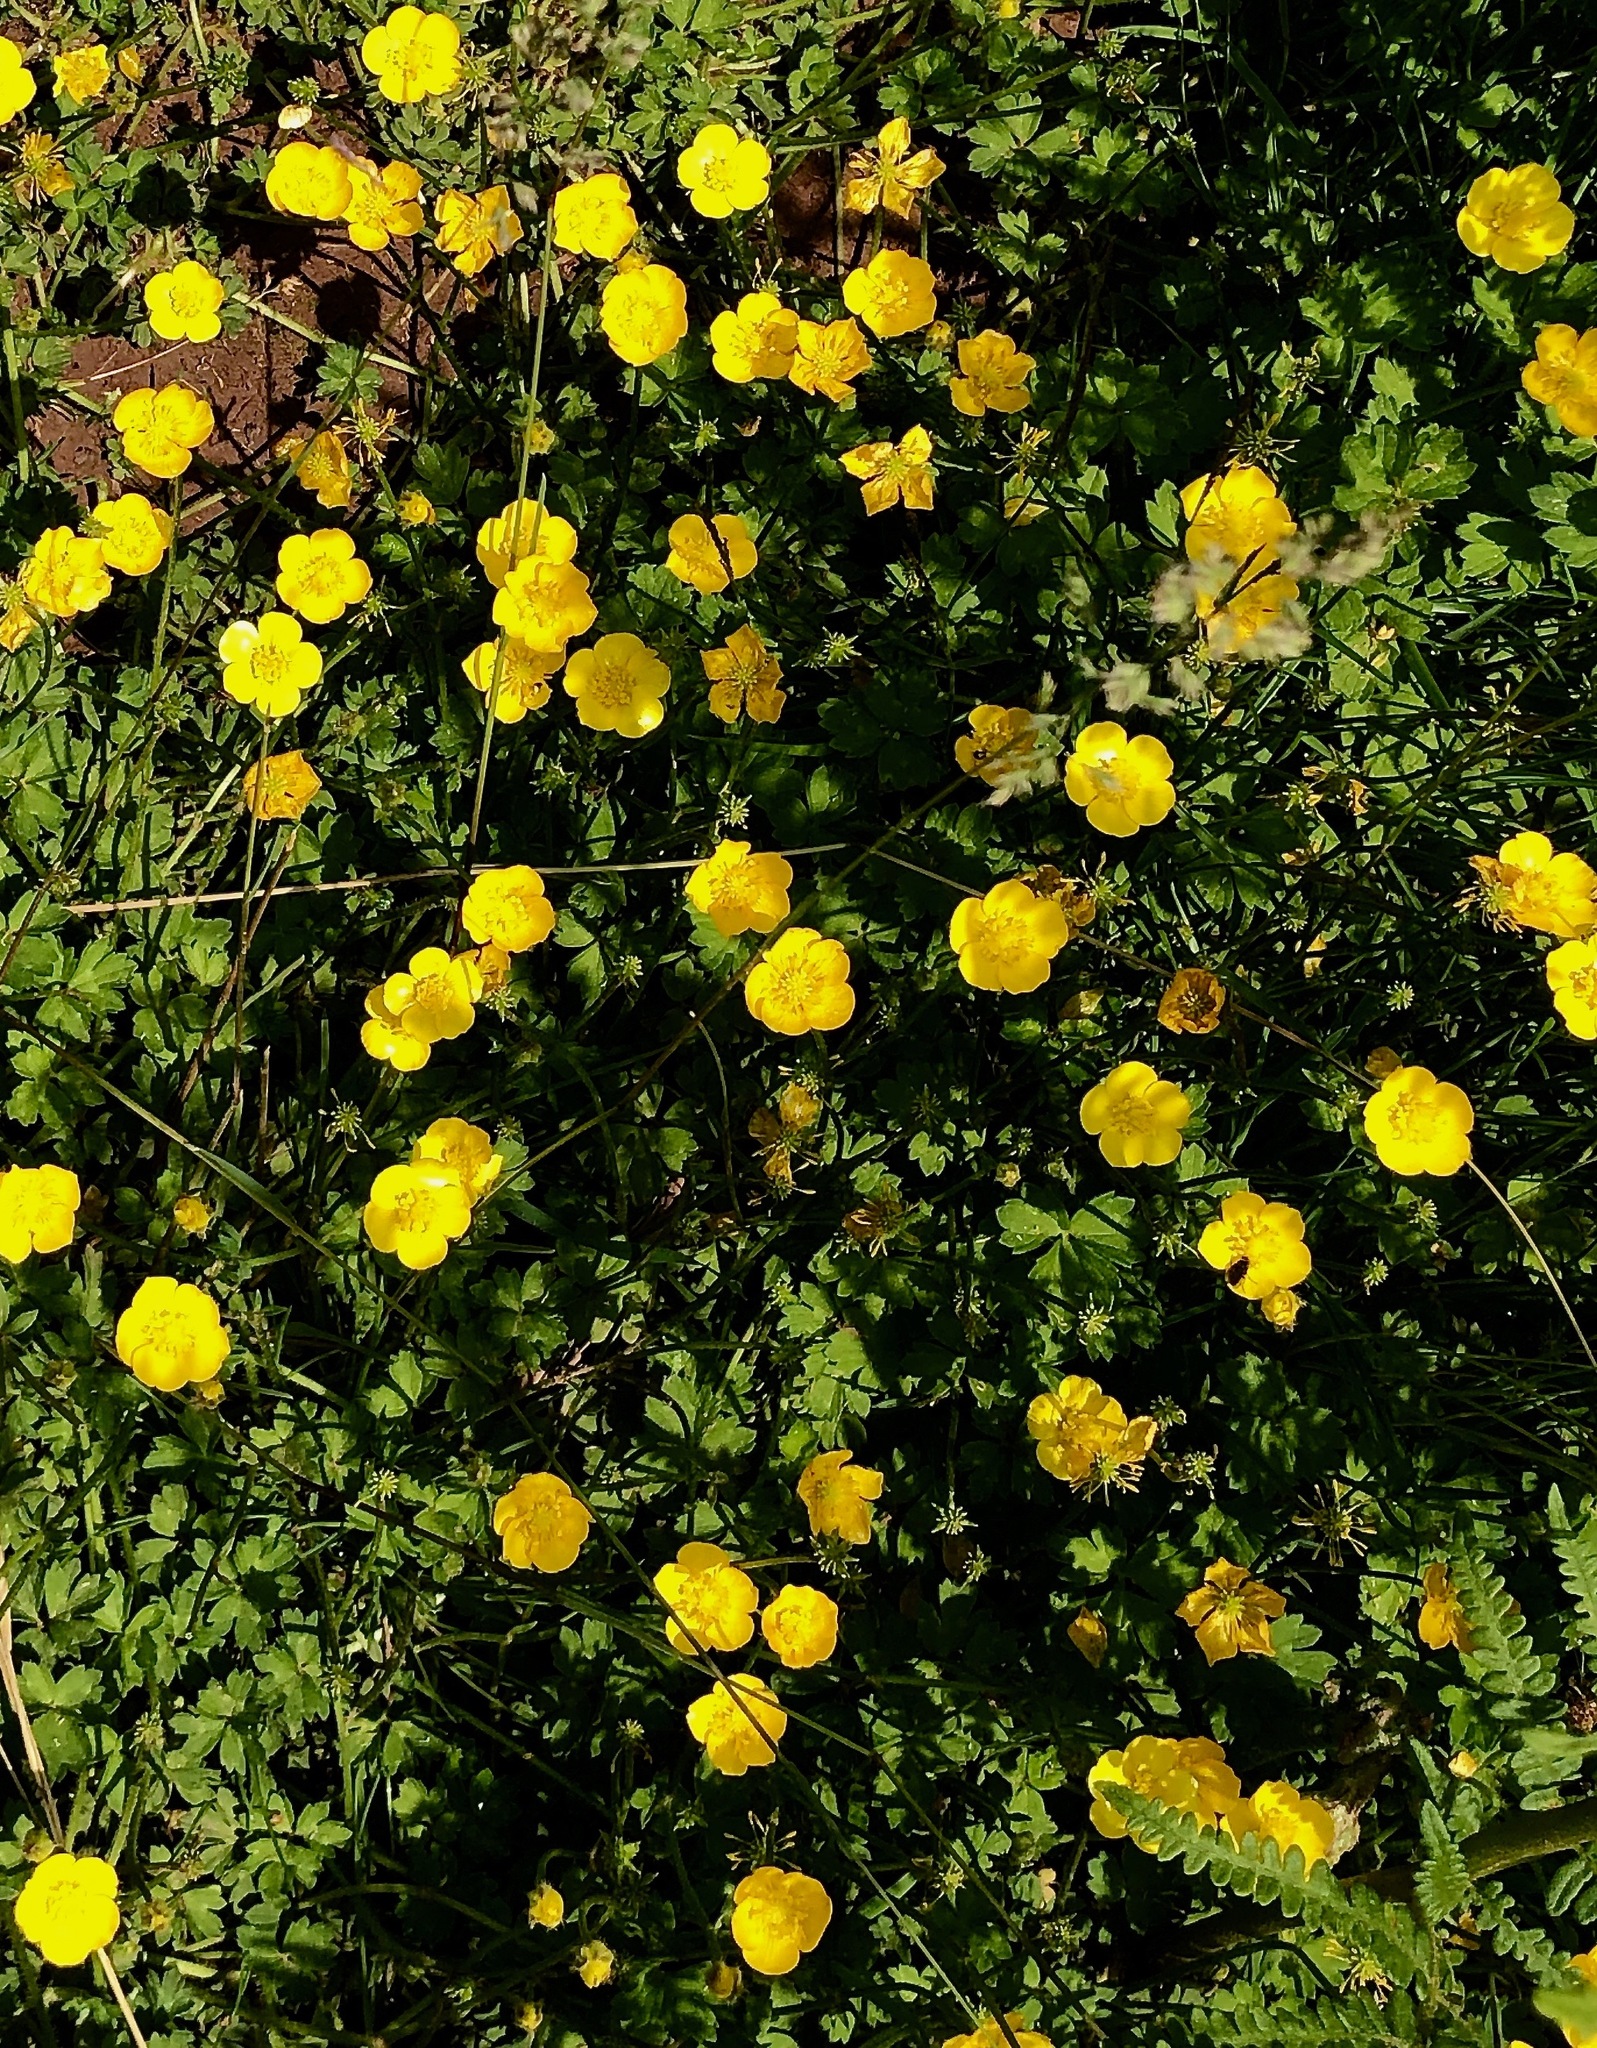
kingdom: Plantae
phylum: Tracheophyta
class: Magnoliopsida
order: Ranunculales
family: Ranunculaceae
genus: Ranunculus
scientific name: Ranunculus repens
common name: Creeping buttercup
